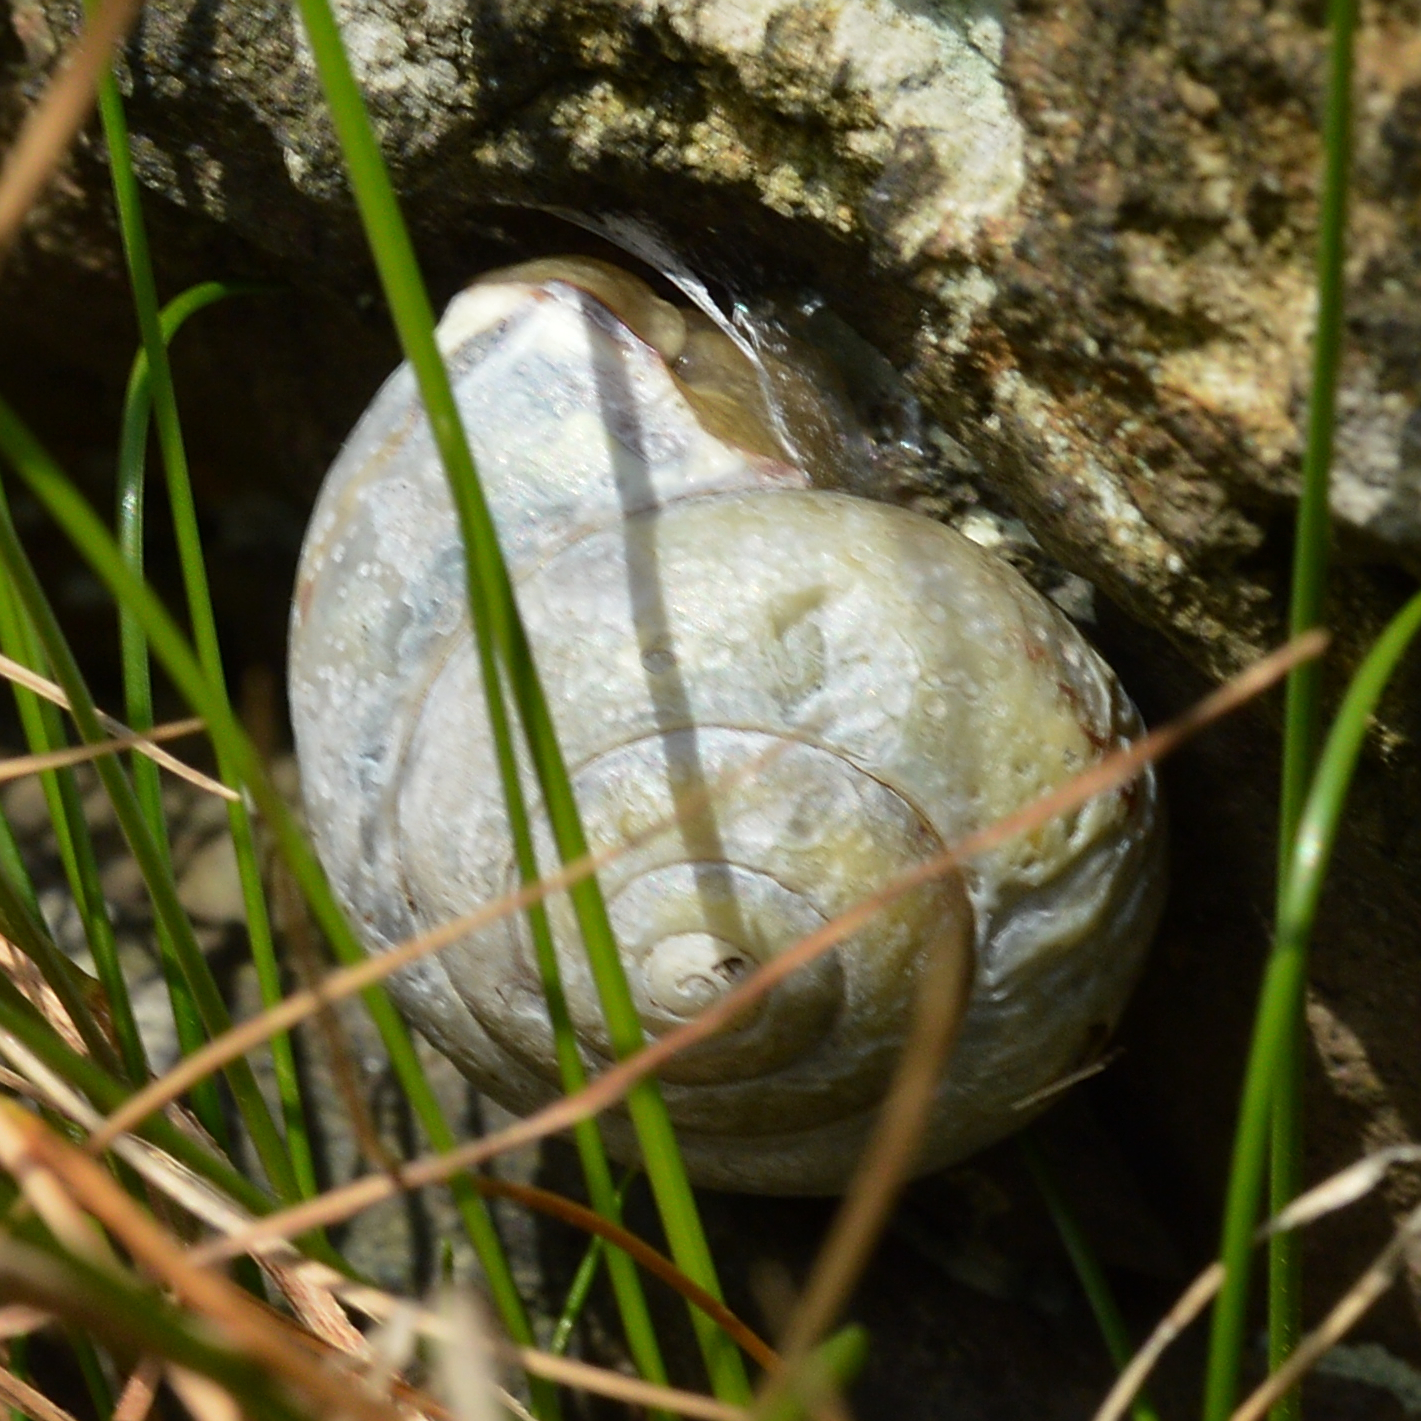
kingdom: Animalia
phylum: Mollusca
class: Gastropoda
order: Stylommatophora
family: Helicidae
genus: Cepaea
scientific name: Cepaea nemoralis
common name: Grovesnail
